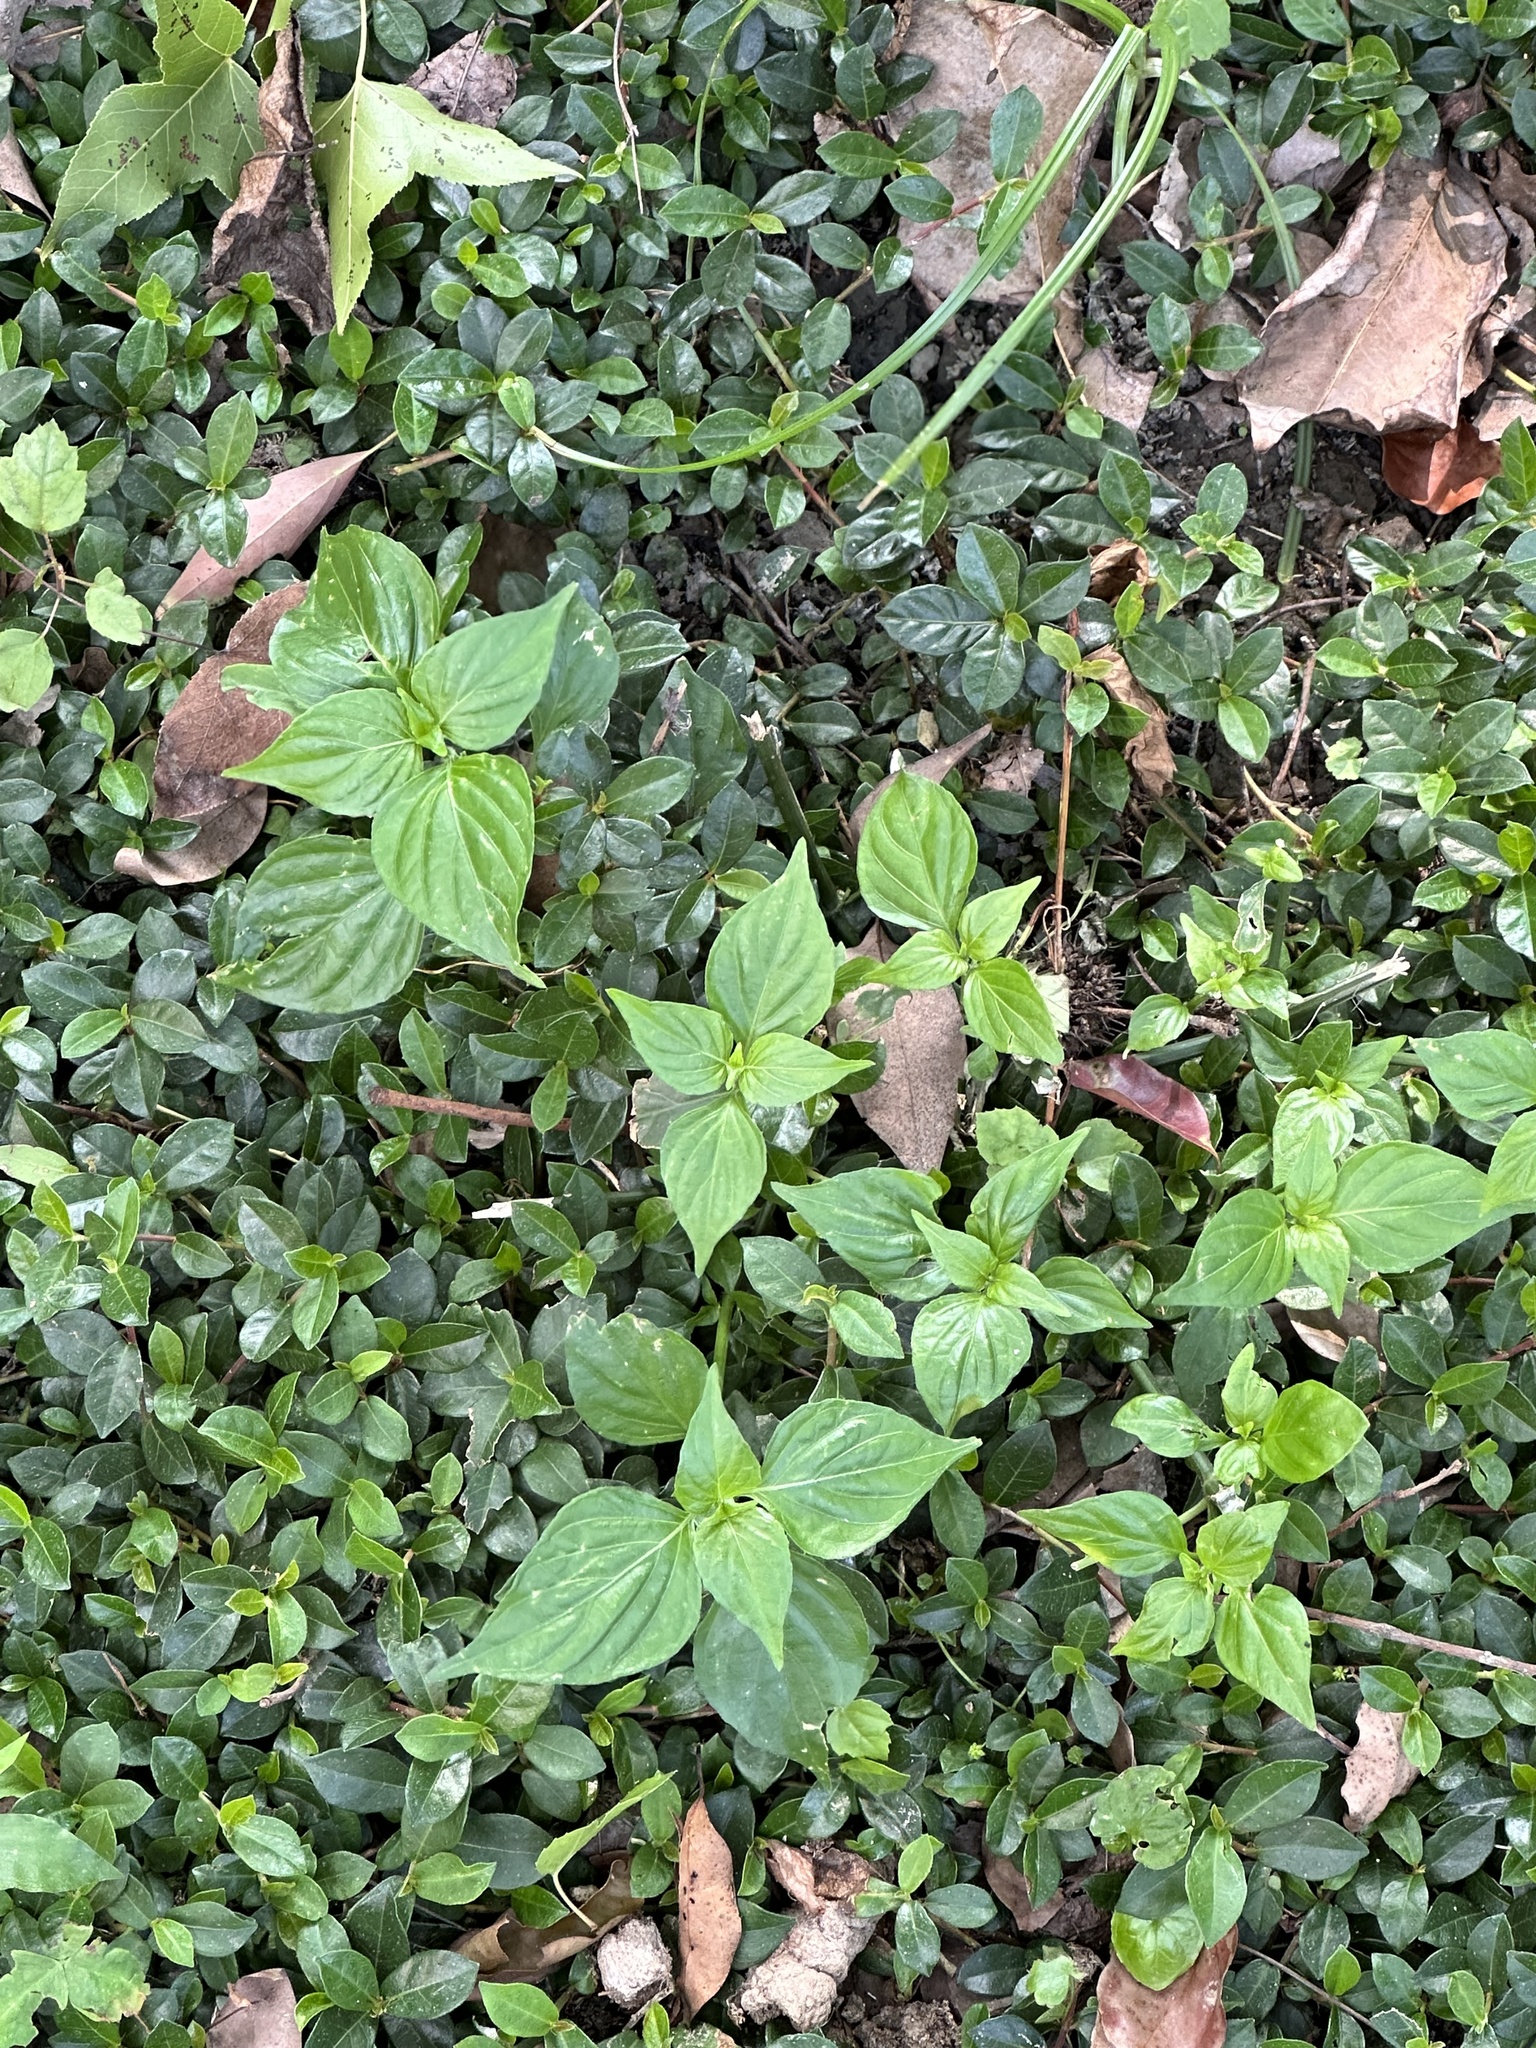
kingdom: Plantae
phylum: Tracheophyta
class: Magnoliopsida
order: Lamiales
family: Acanthaceae
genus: Dicliptera
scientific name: Dicliptera chinensis
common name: Chinese foldwing
